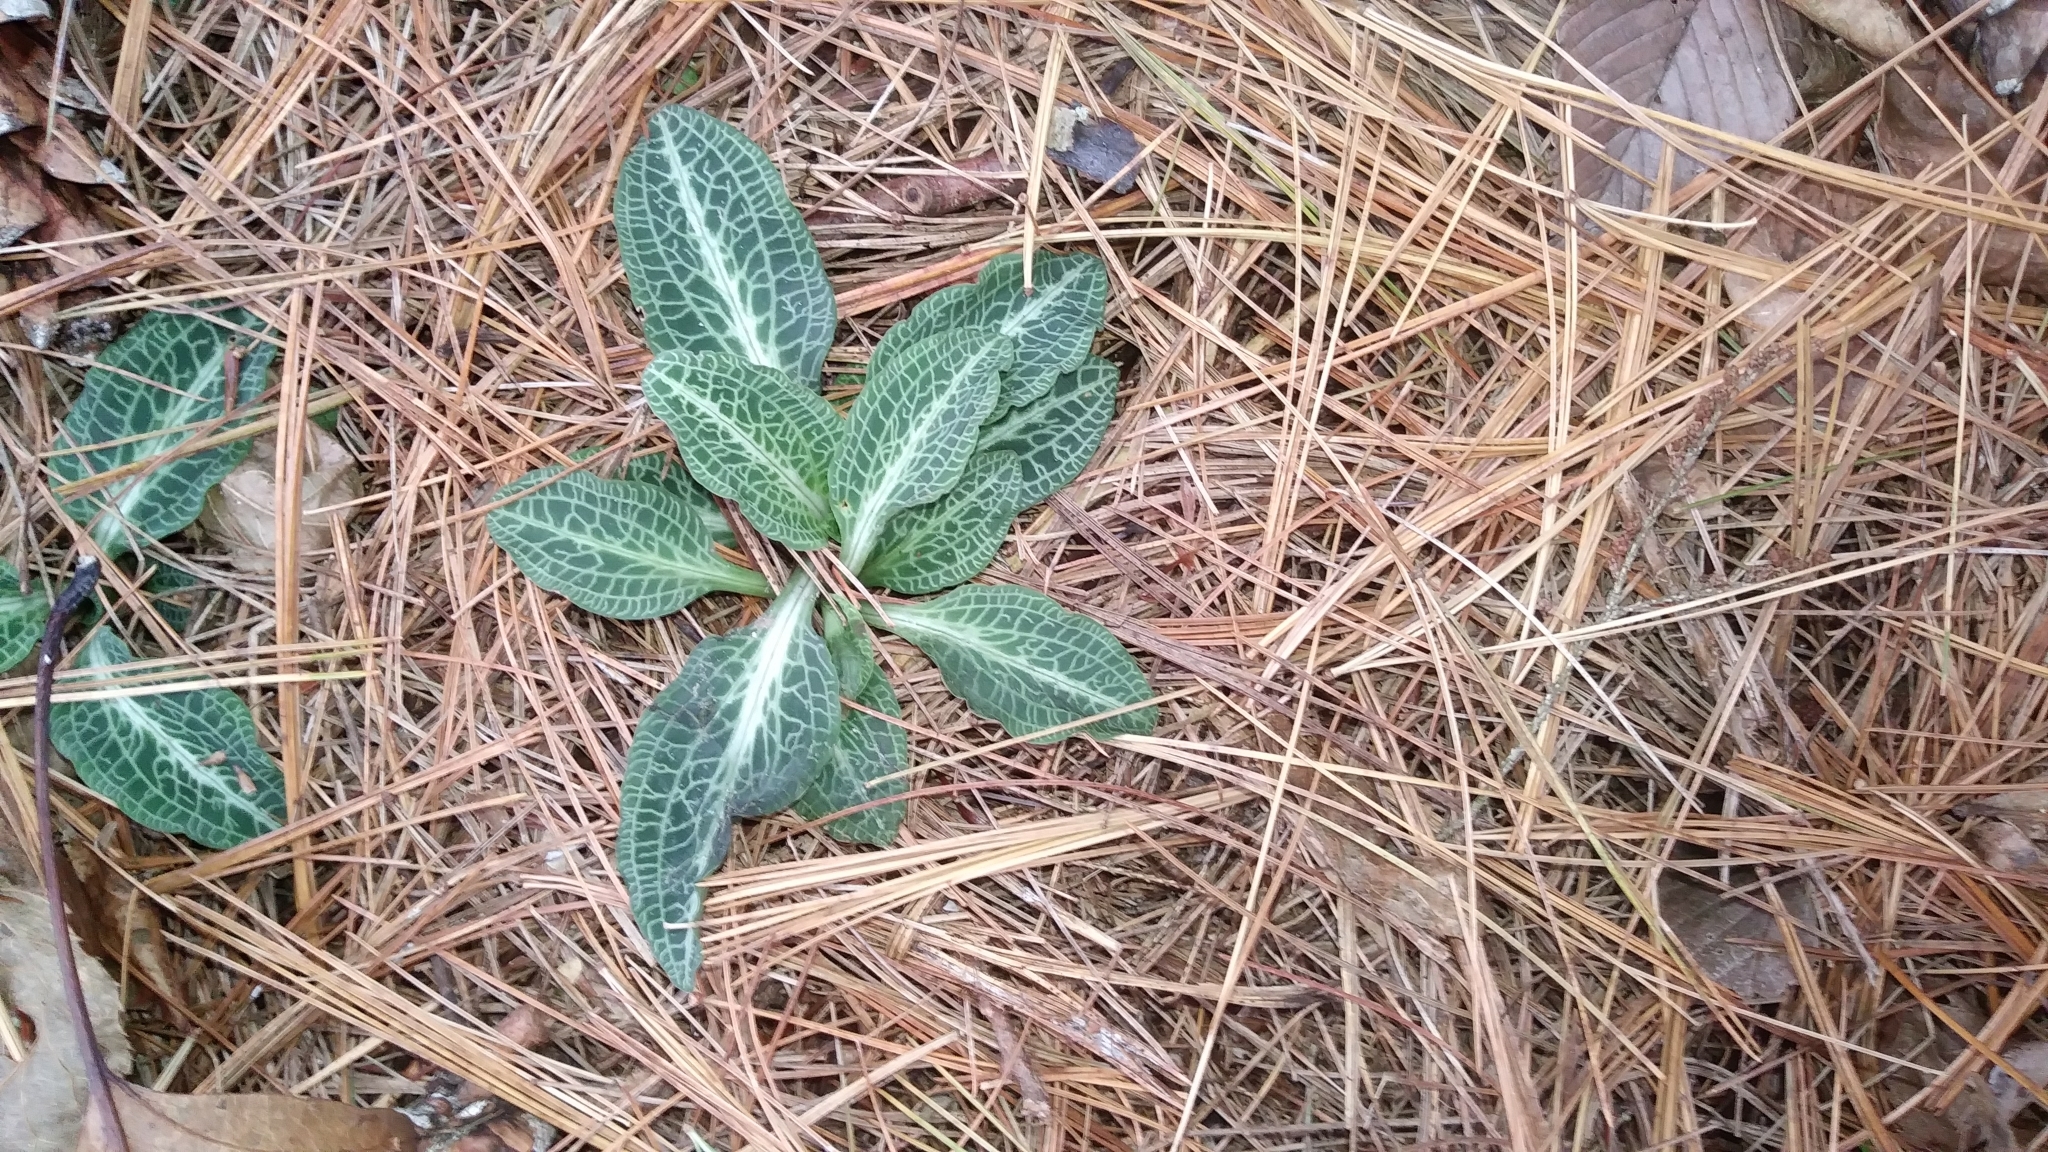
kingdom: Plantae
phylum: Tracheophyta
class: Liliopsida
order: Asparagales
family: Orchidaceae
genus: Goodyera
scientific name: Goodyera pubescens
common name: Downy rattlesnake-plantain
